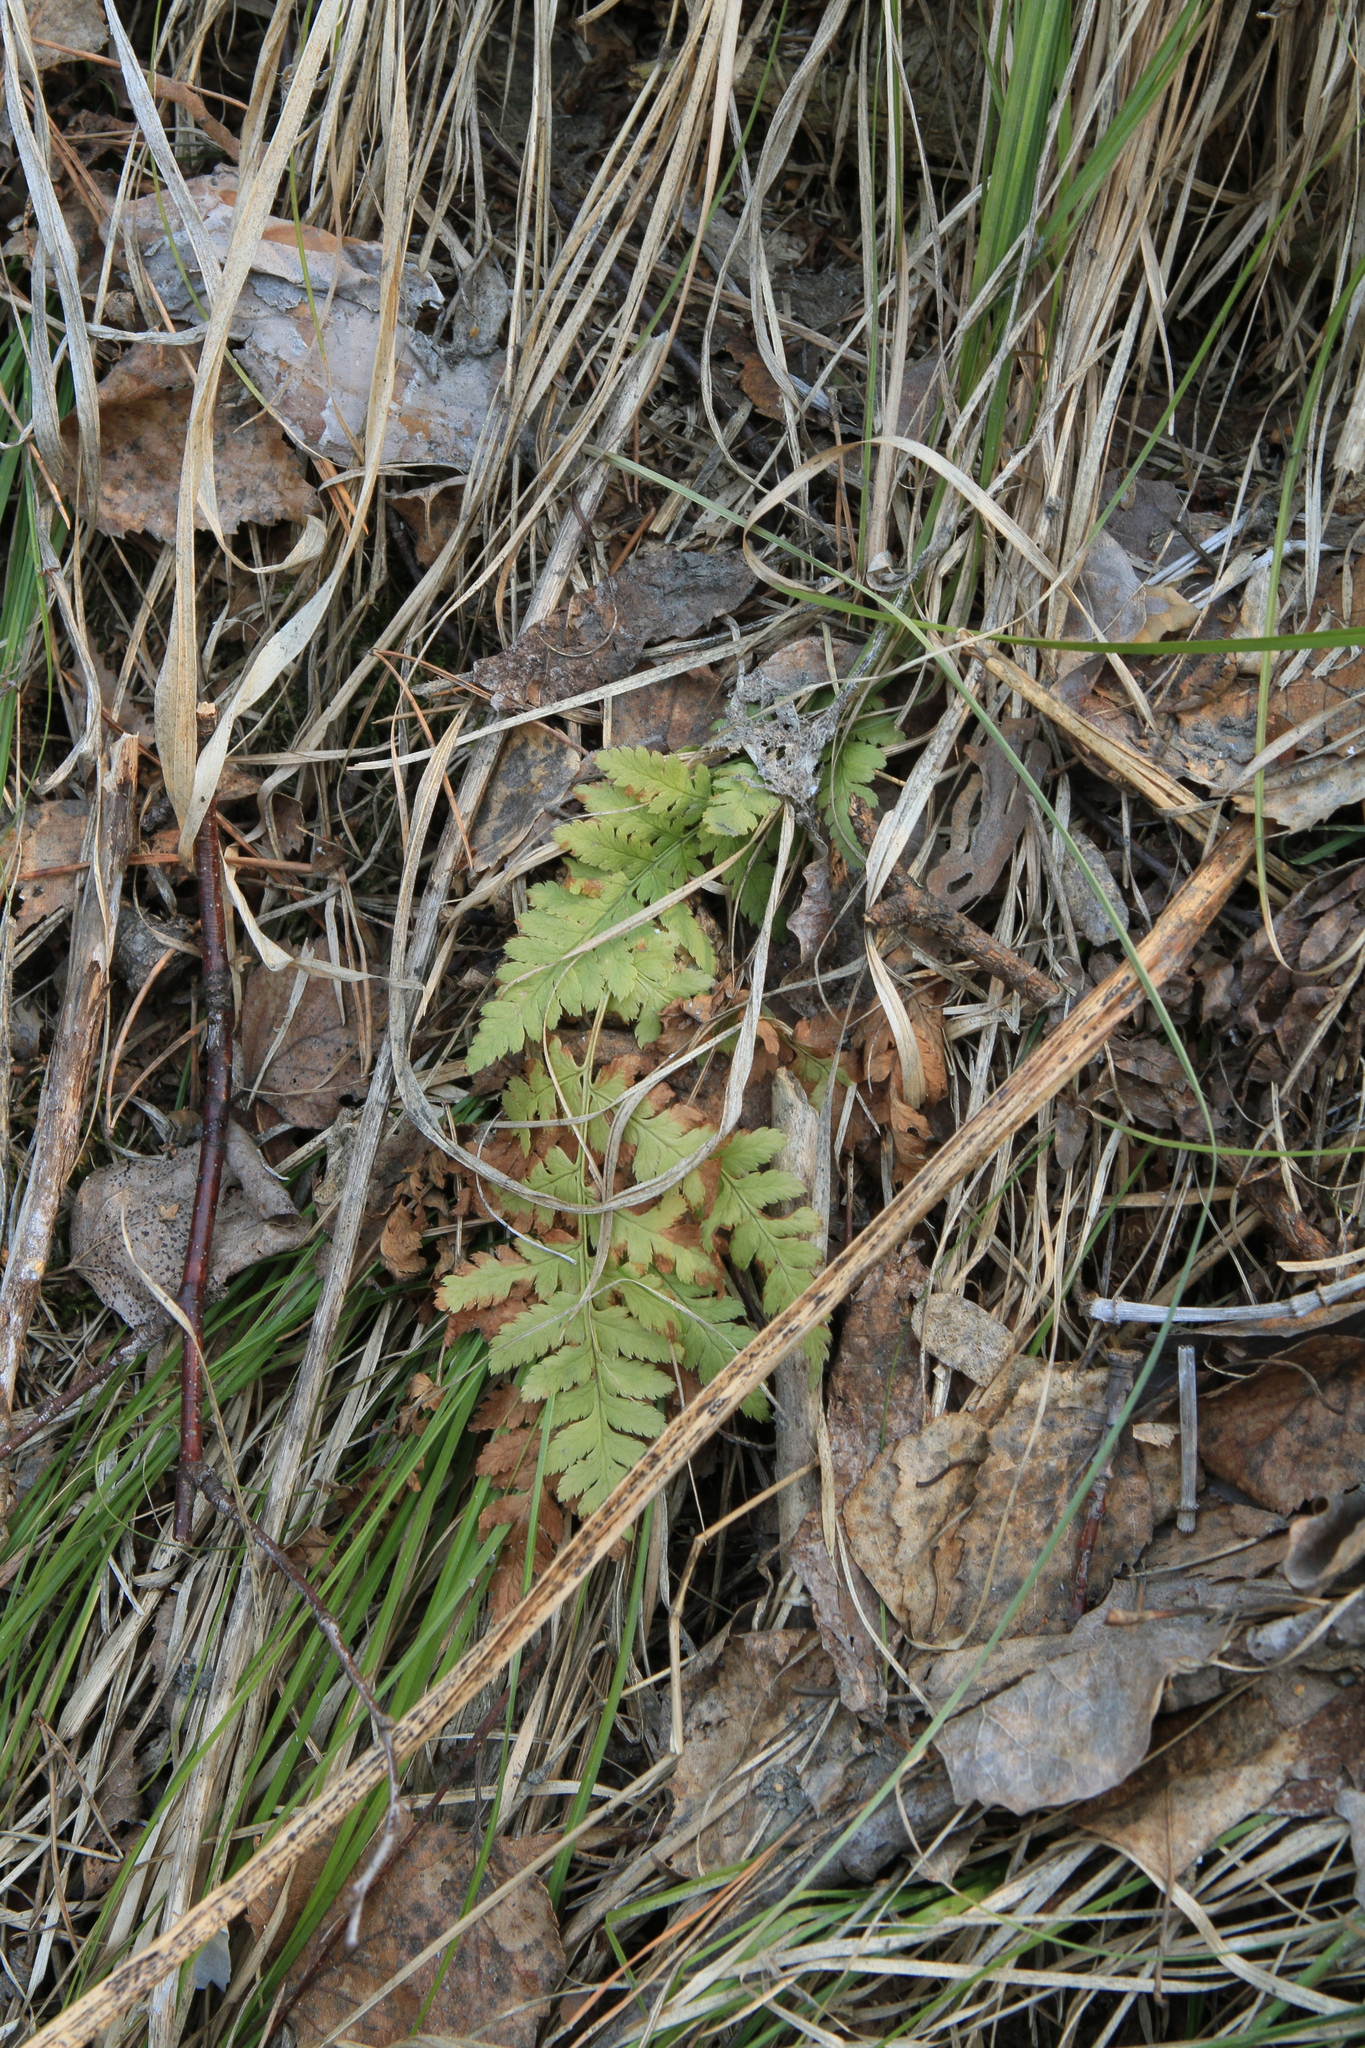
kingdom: Plantae
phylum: Tracheophyta
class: Polypodiopsida
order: Polypodiales
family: Dryopteridaceae
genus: Dryopteris
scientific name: Dryopteris carthusiana
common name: Narrow buckler-fern
